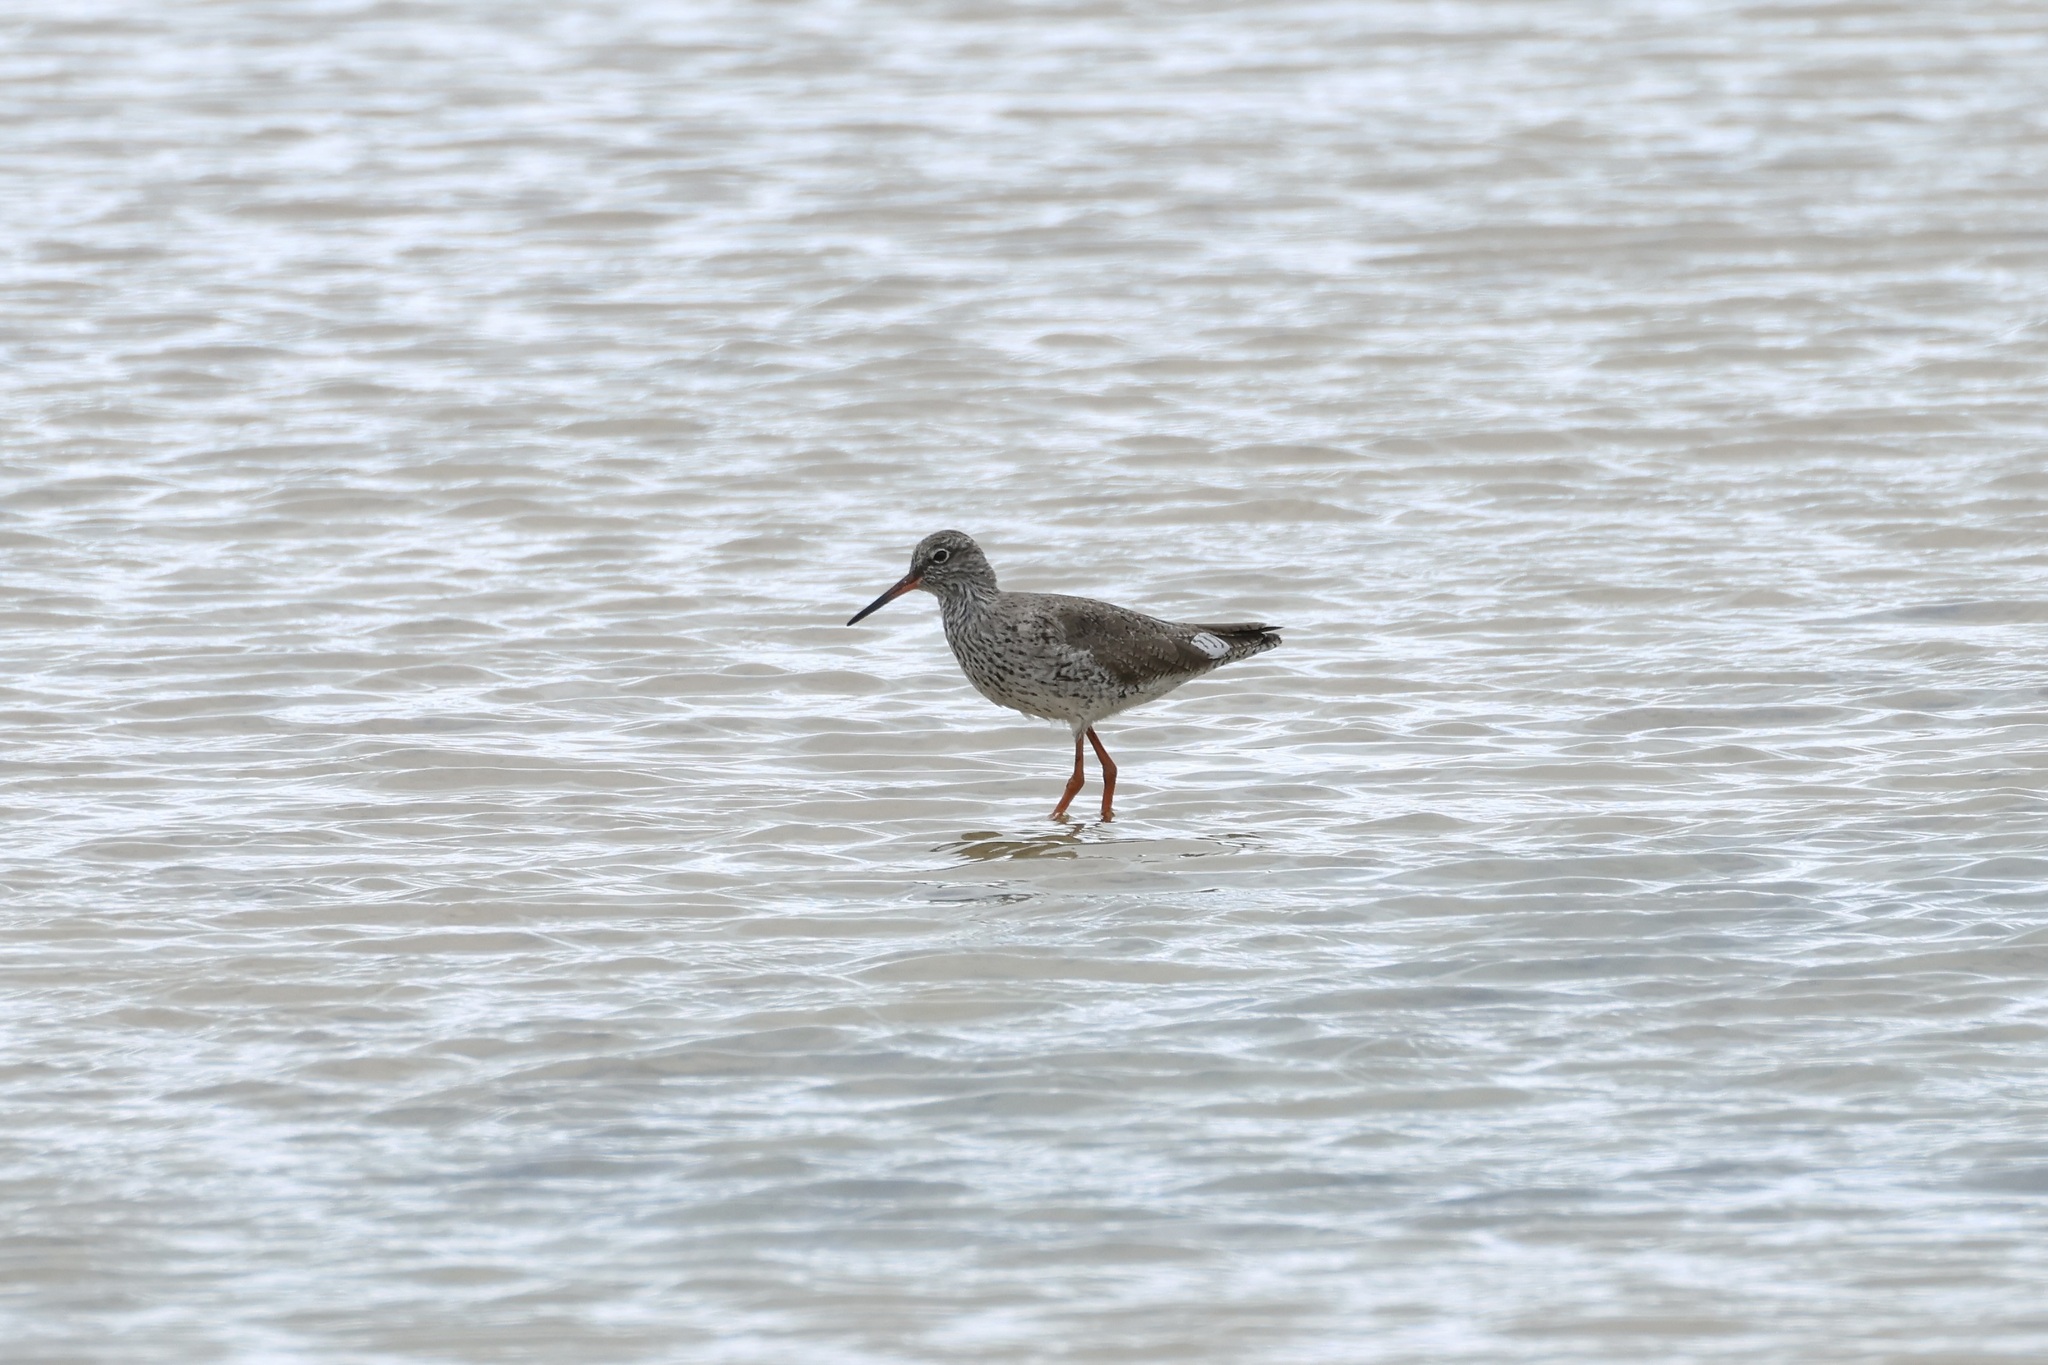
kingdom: Animalia
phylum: Chordata
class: Aves
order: Charadriiformes
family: Scolopacidae
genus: Tringa
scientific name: Tringa totanus
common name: Common redshank
